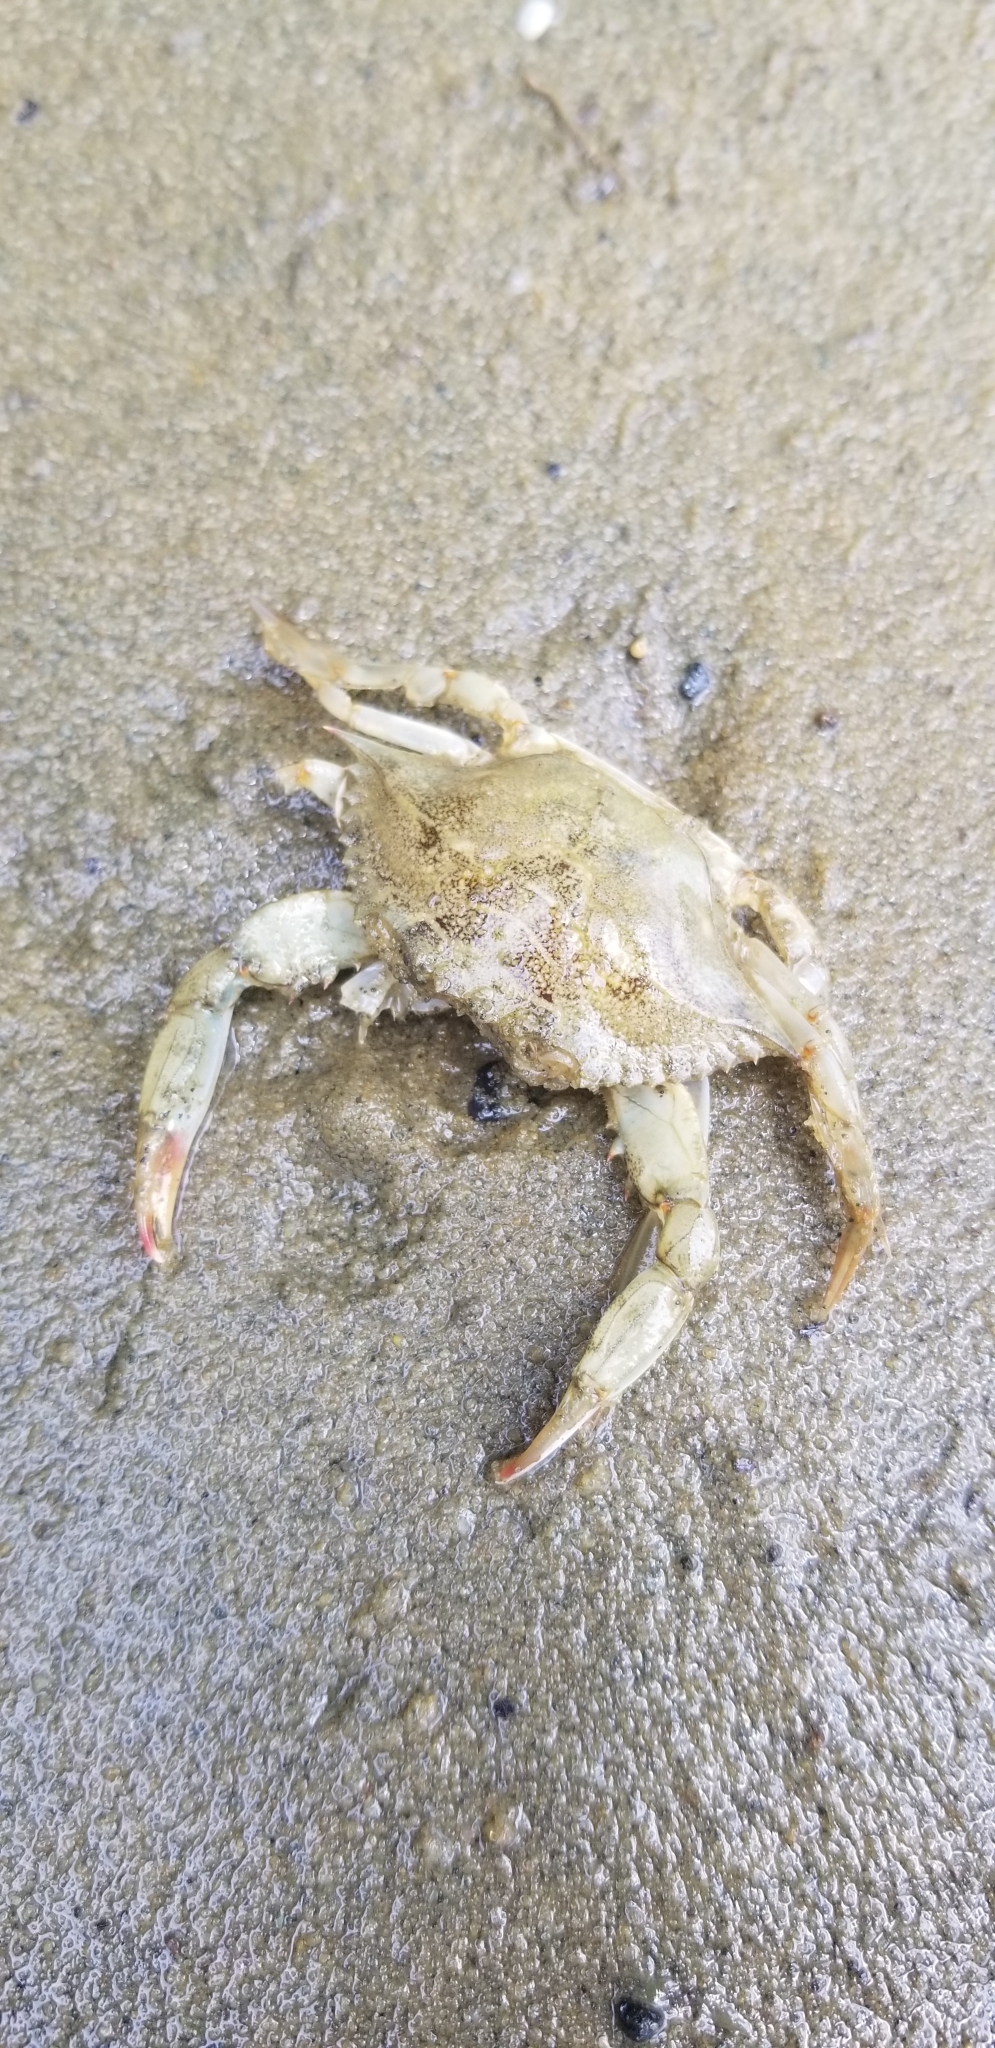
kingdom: Animalia
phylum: Arthropoda
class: Malacostraca
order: Decapoda
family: Portunidae
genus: Callinectes
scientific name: Callinectes sapidus
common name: Blue crab
